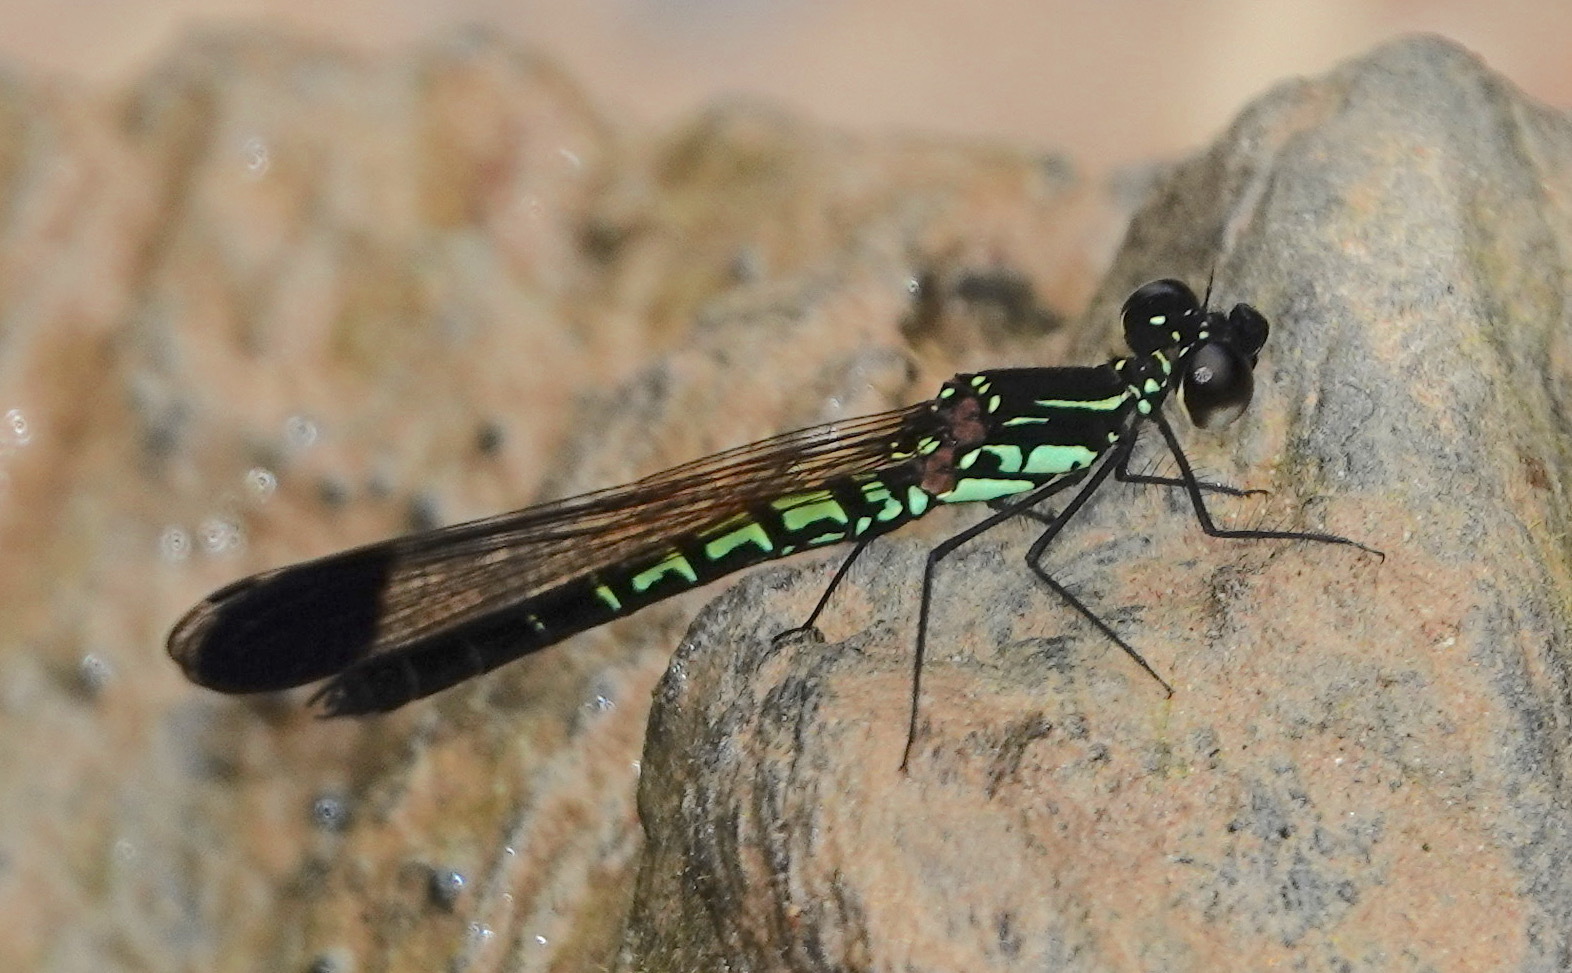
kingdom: Animalia
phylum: Arthropoda
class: Insecta
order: Odonata
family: Chlorocyphidae
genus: Libellago
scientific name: Libellago semiopaca
